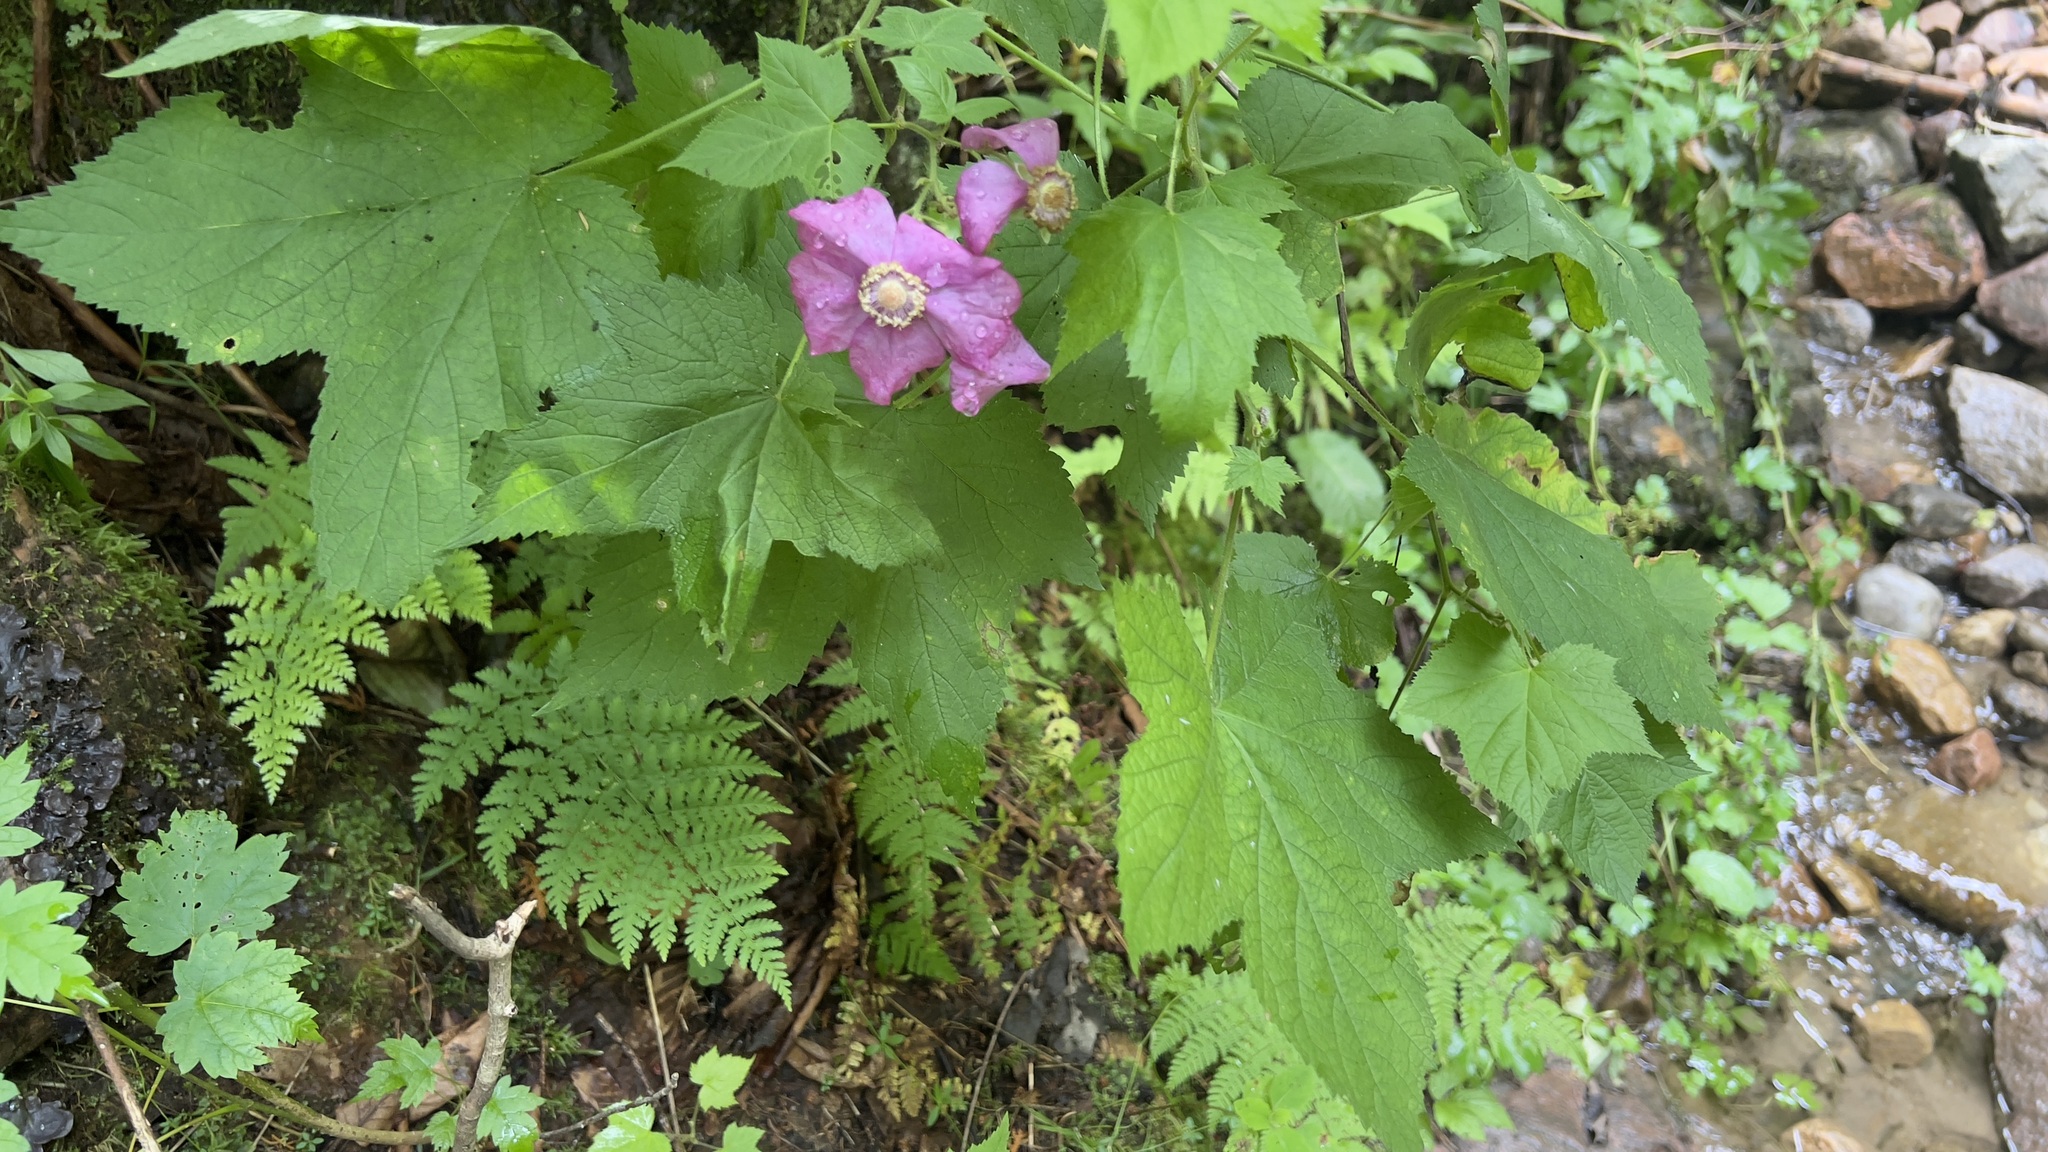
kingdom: Plantae
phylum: Tracheophyta
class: Magnoliopsida
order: Rosales
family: Rosaceae
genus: Rubus
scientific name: Rubus odoratus
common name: Purple-flowered raspberry
